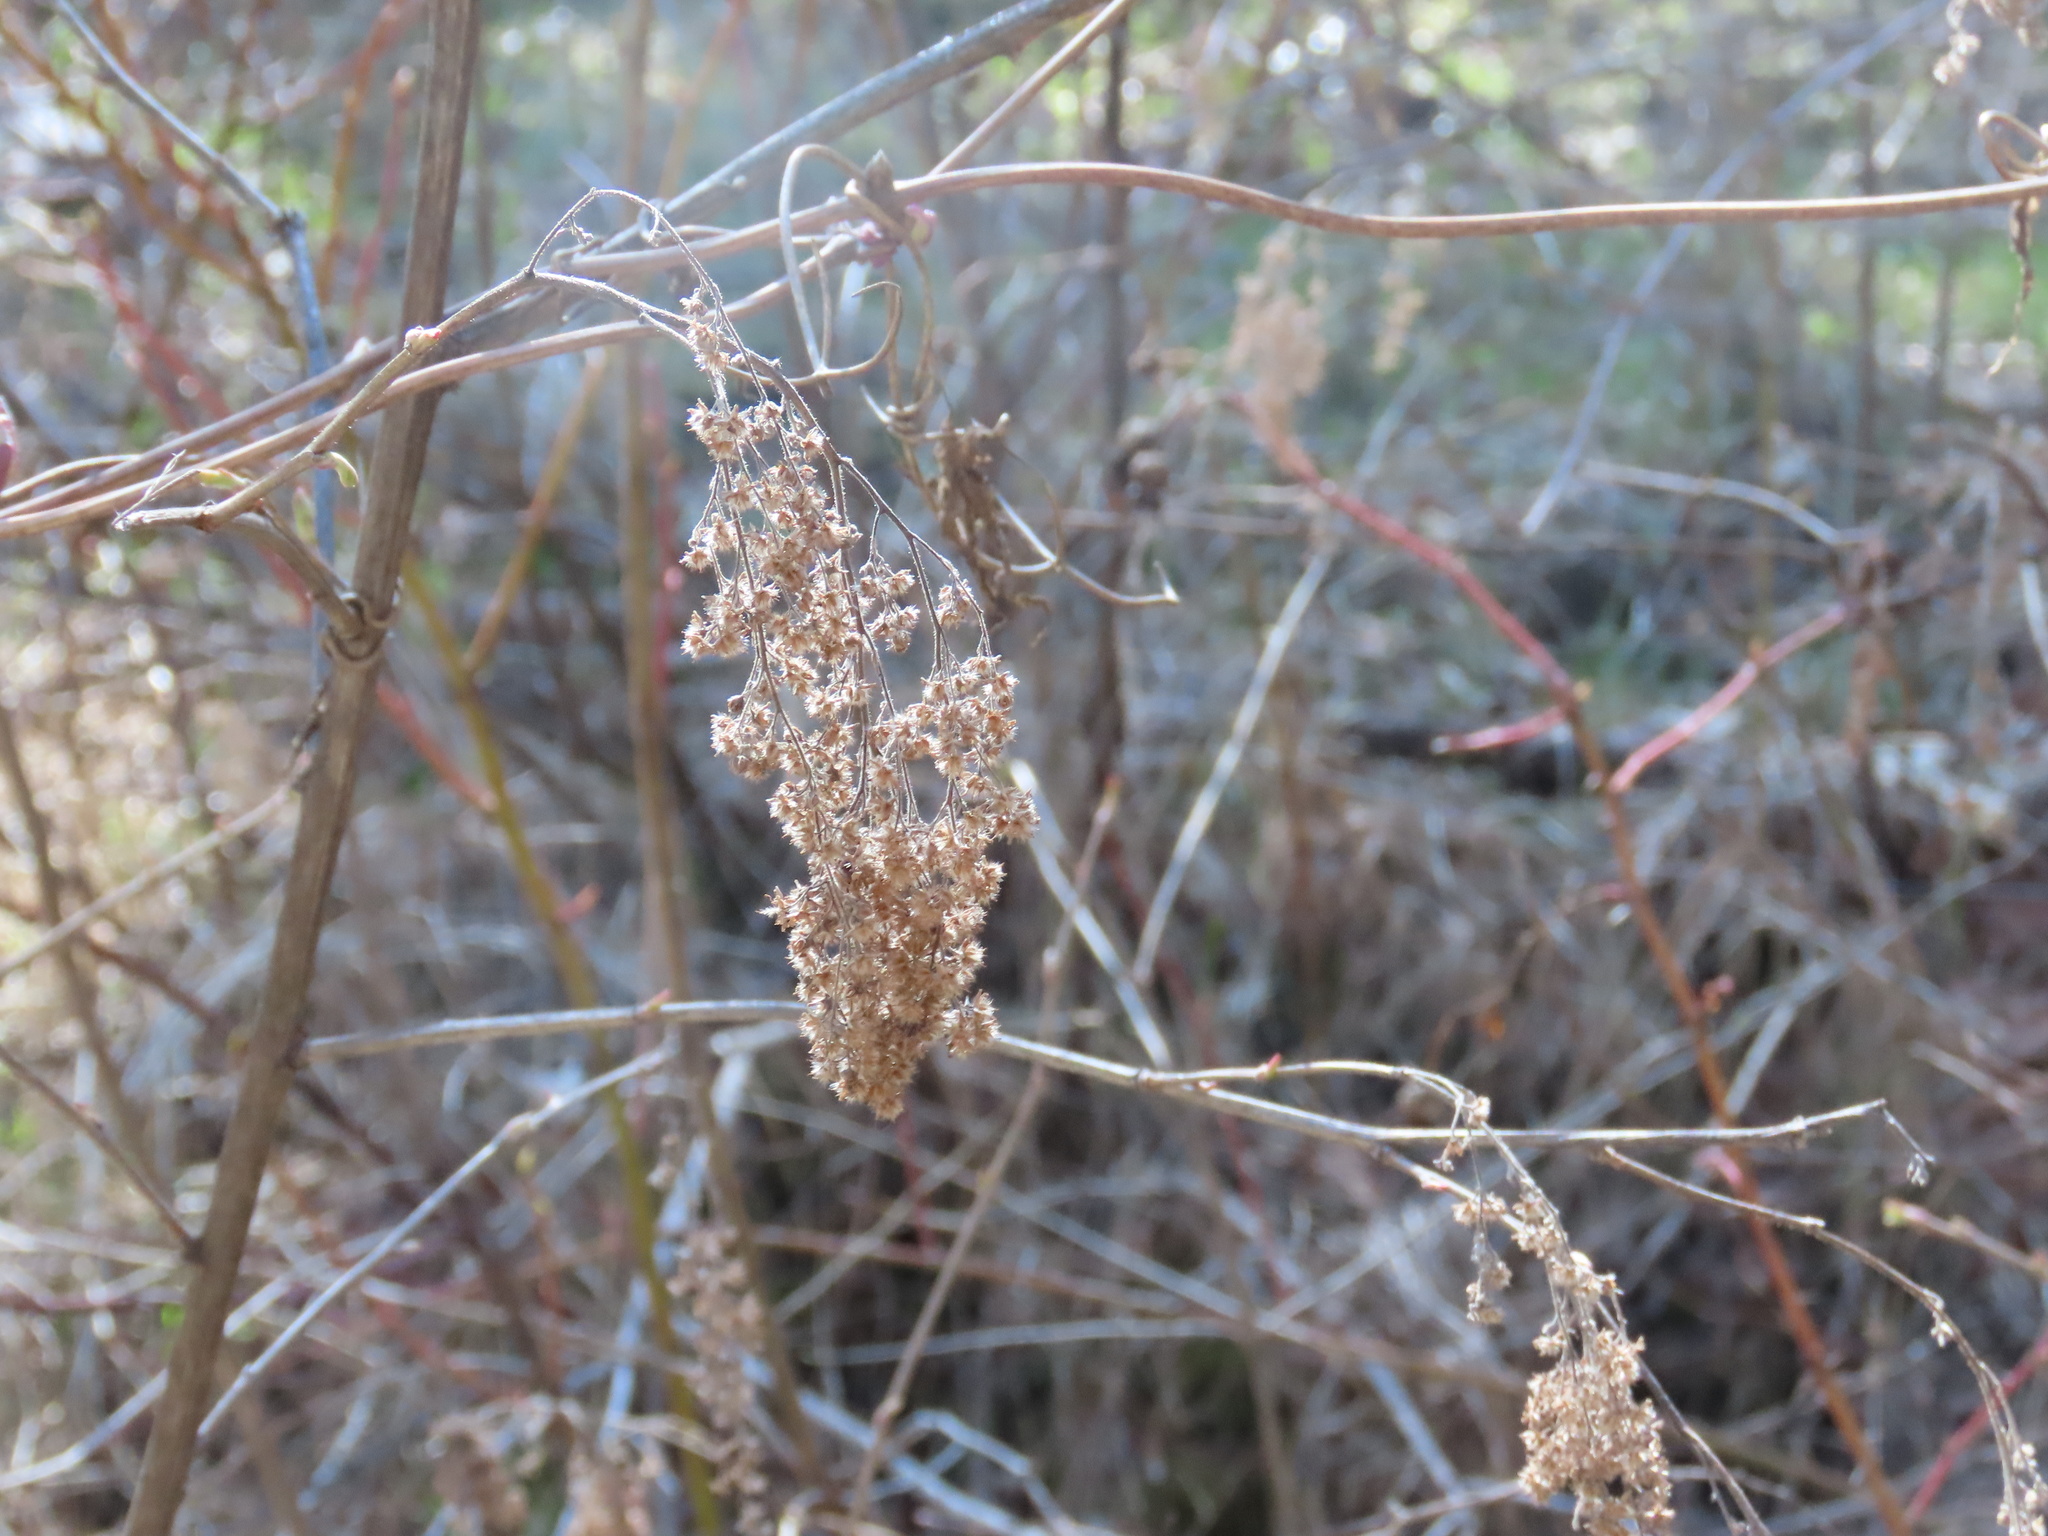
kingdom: Plantae
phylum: Tracheophyta
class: Magnoliopsida
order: Rosales
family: Rosaceae
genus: Holodiscus
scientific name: Holodiscus discolor
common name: Oceanspray
